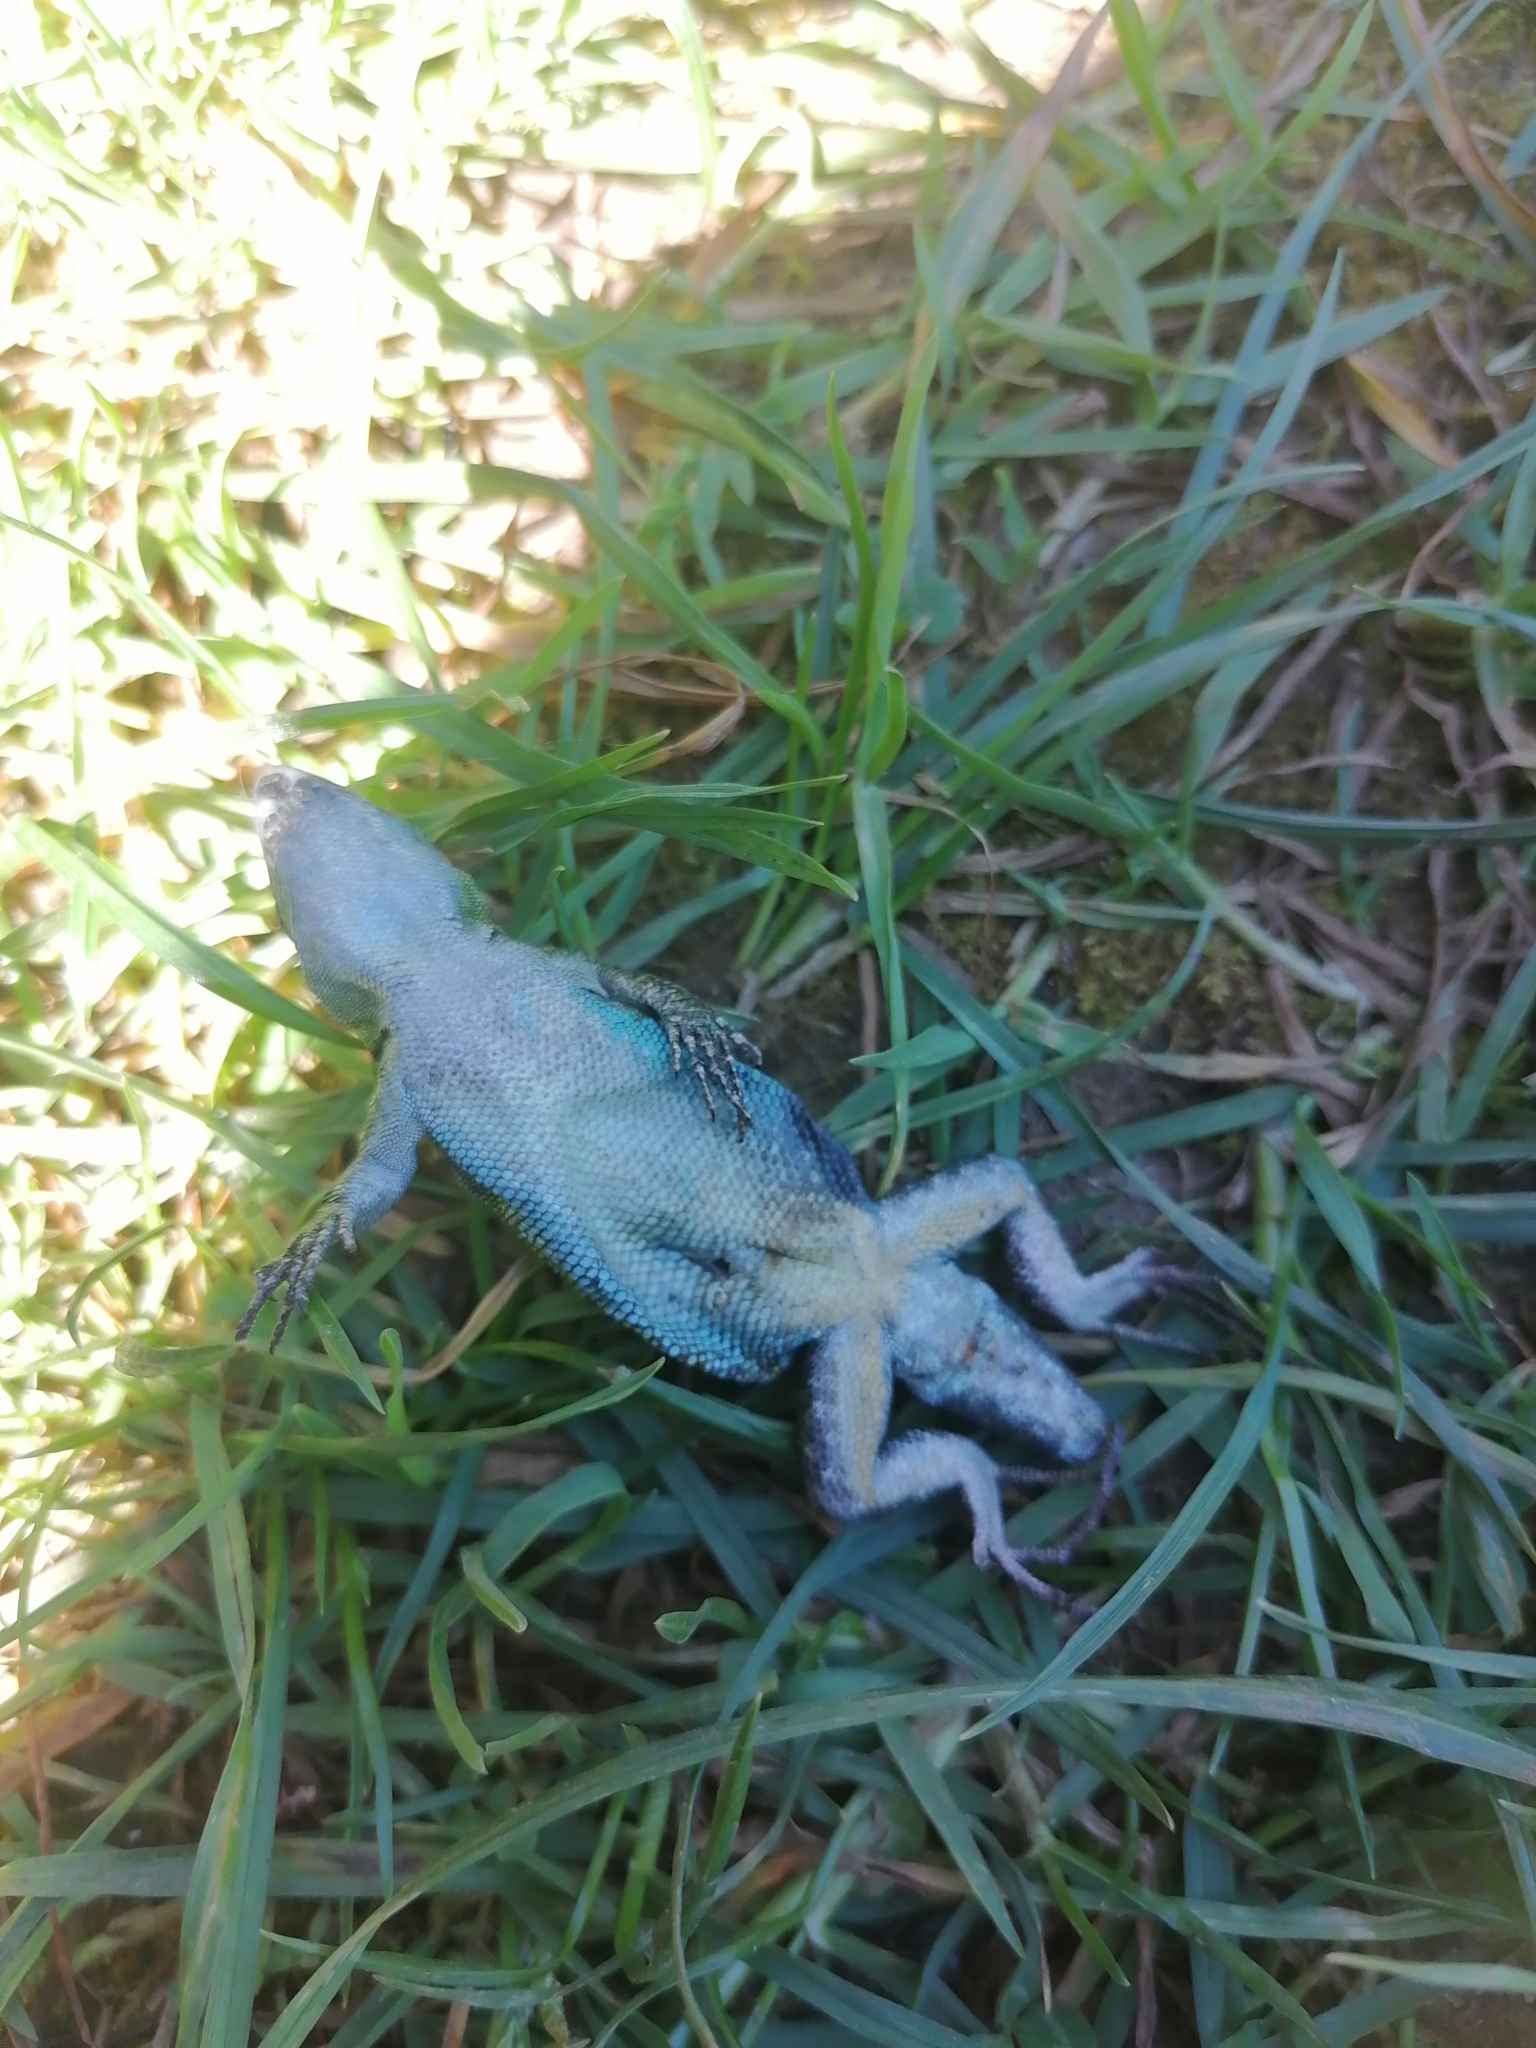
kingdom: Animalia
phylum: Chordata
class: Squamata
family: Liolaemidae
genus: Liolaemus
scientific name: Liolaemus pictus
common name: Painted tree iguana
